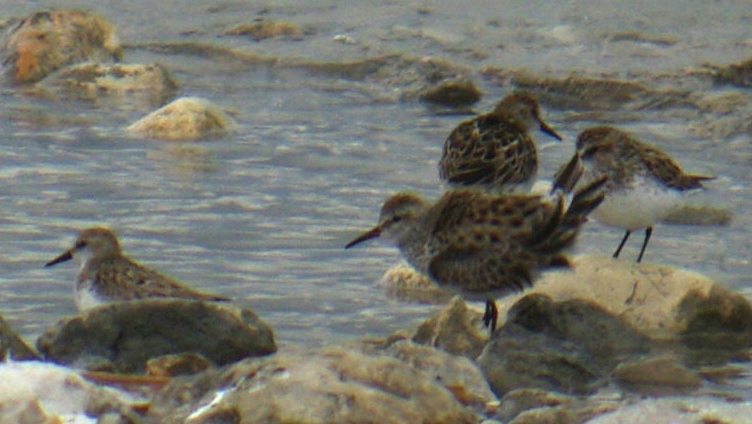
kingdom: Animalia
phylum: Chordata
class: Aves
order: Charadriiformes
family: Scolopacidae
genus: Calidris
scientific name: Calidris pusilla
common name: Semipalmated sandpiper
